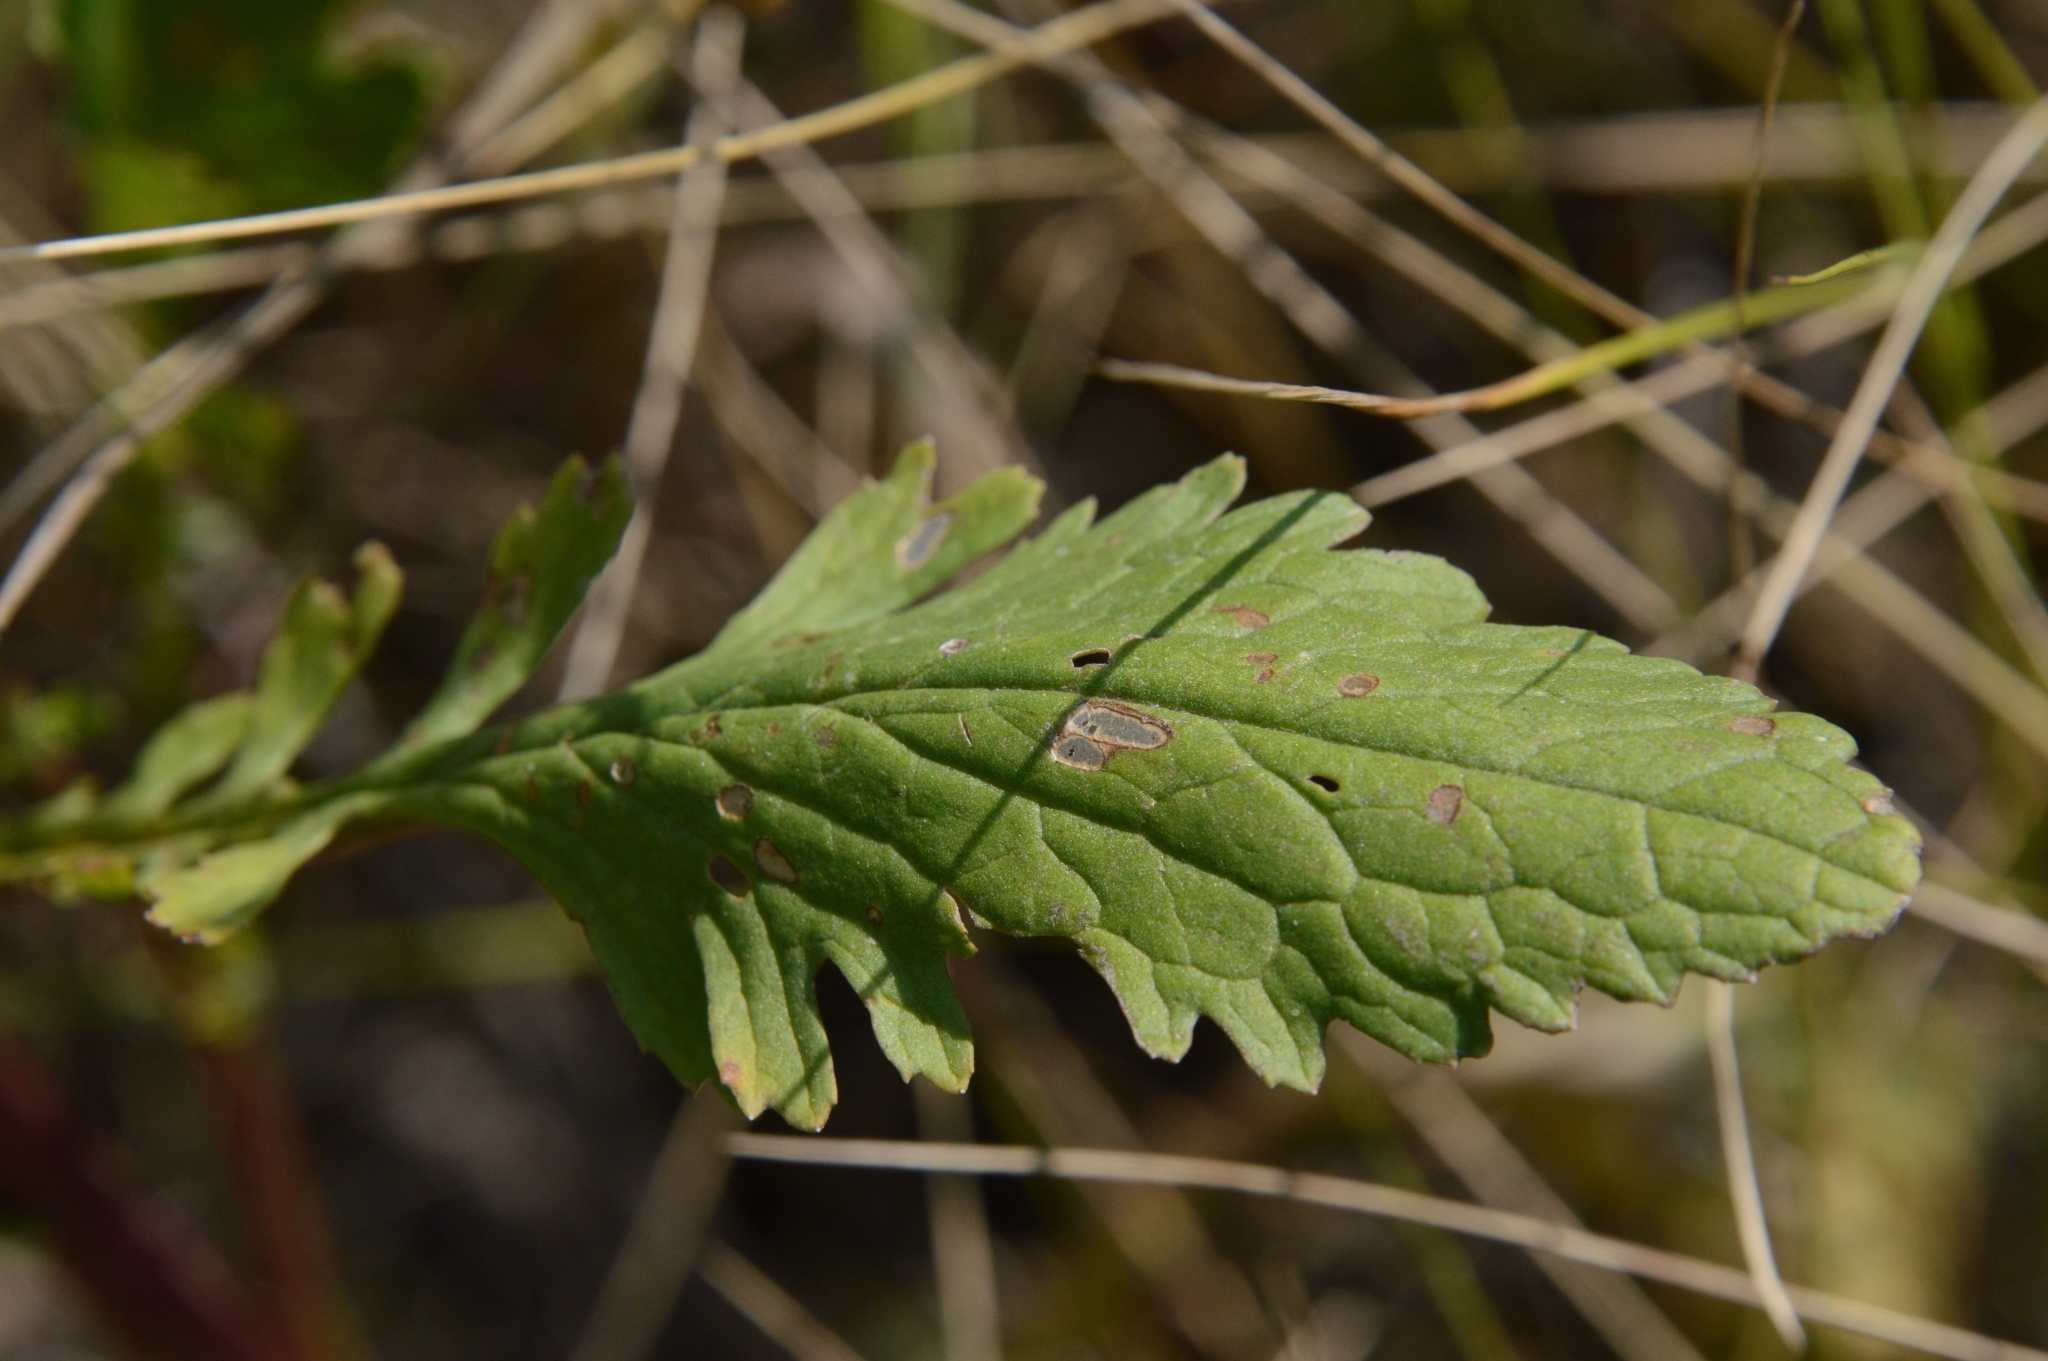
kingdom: Plantae
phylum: Tracheophyta
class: Magnoliopsida
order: Asterales
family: Asteraceae
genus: Jacobaea
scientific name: Jacobaea vulgaris
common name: Stinking willie
